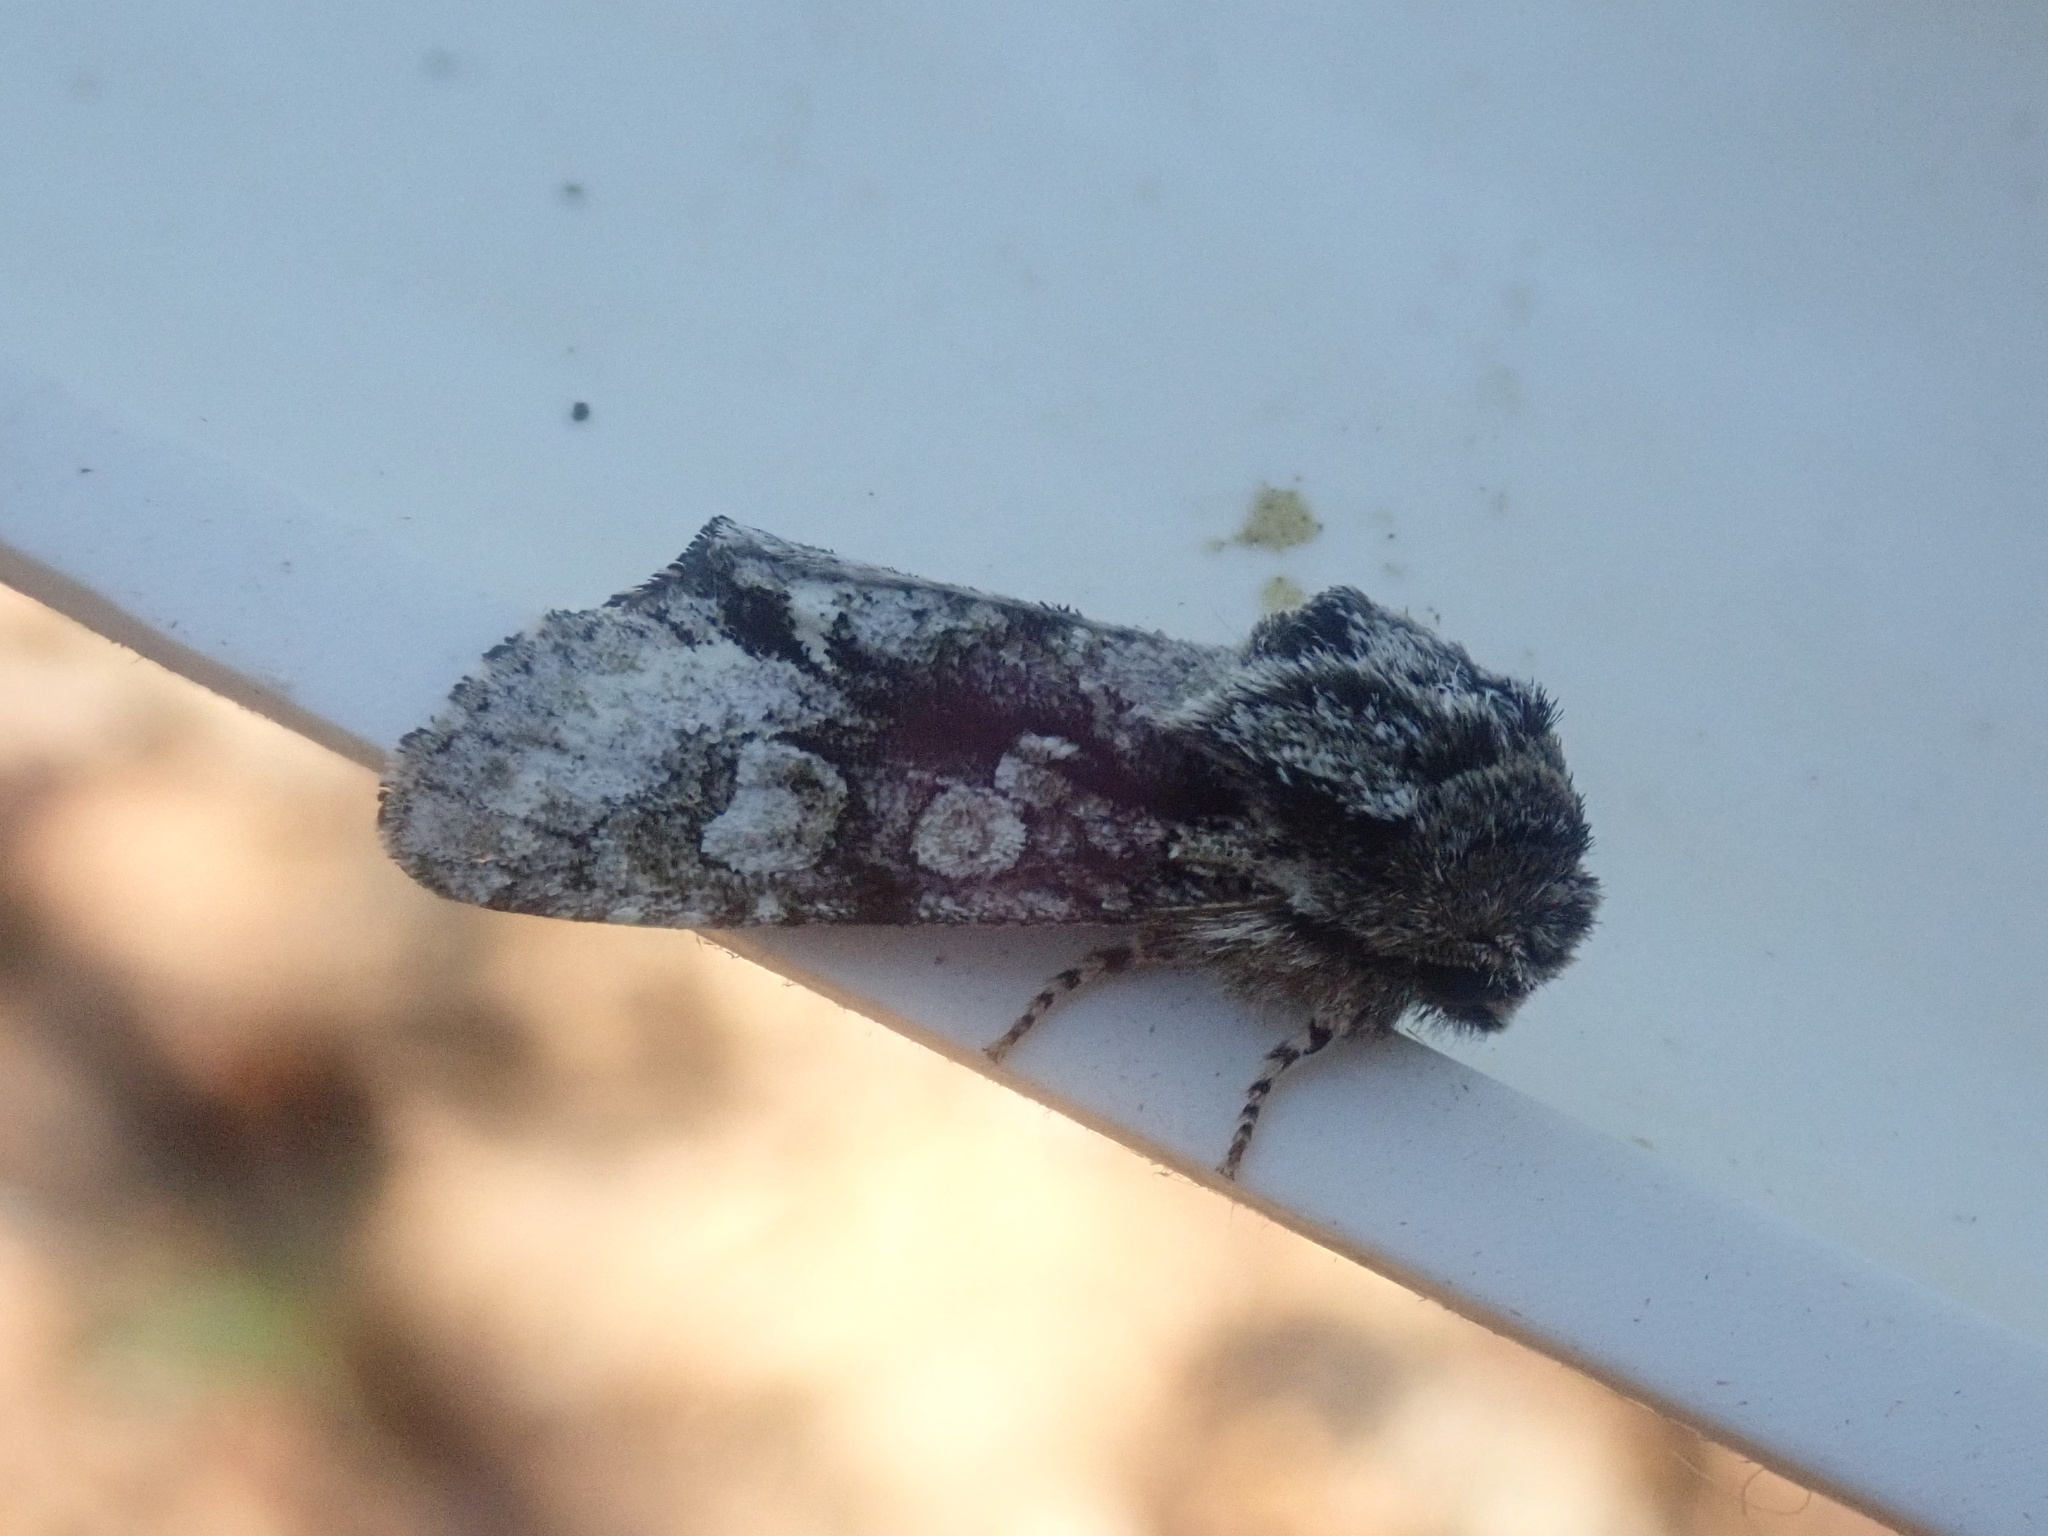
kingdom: Animalia
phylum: Arthropoda
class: Insecta
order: Lepidoptera
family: Noctuidae
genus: Psaphida
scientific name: Psaphida resumens
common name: Figure-eight sallow
